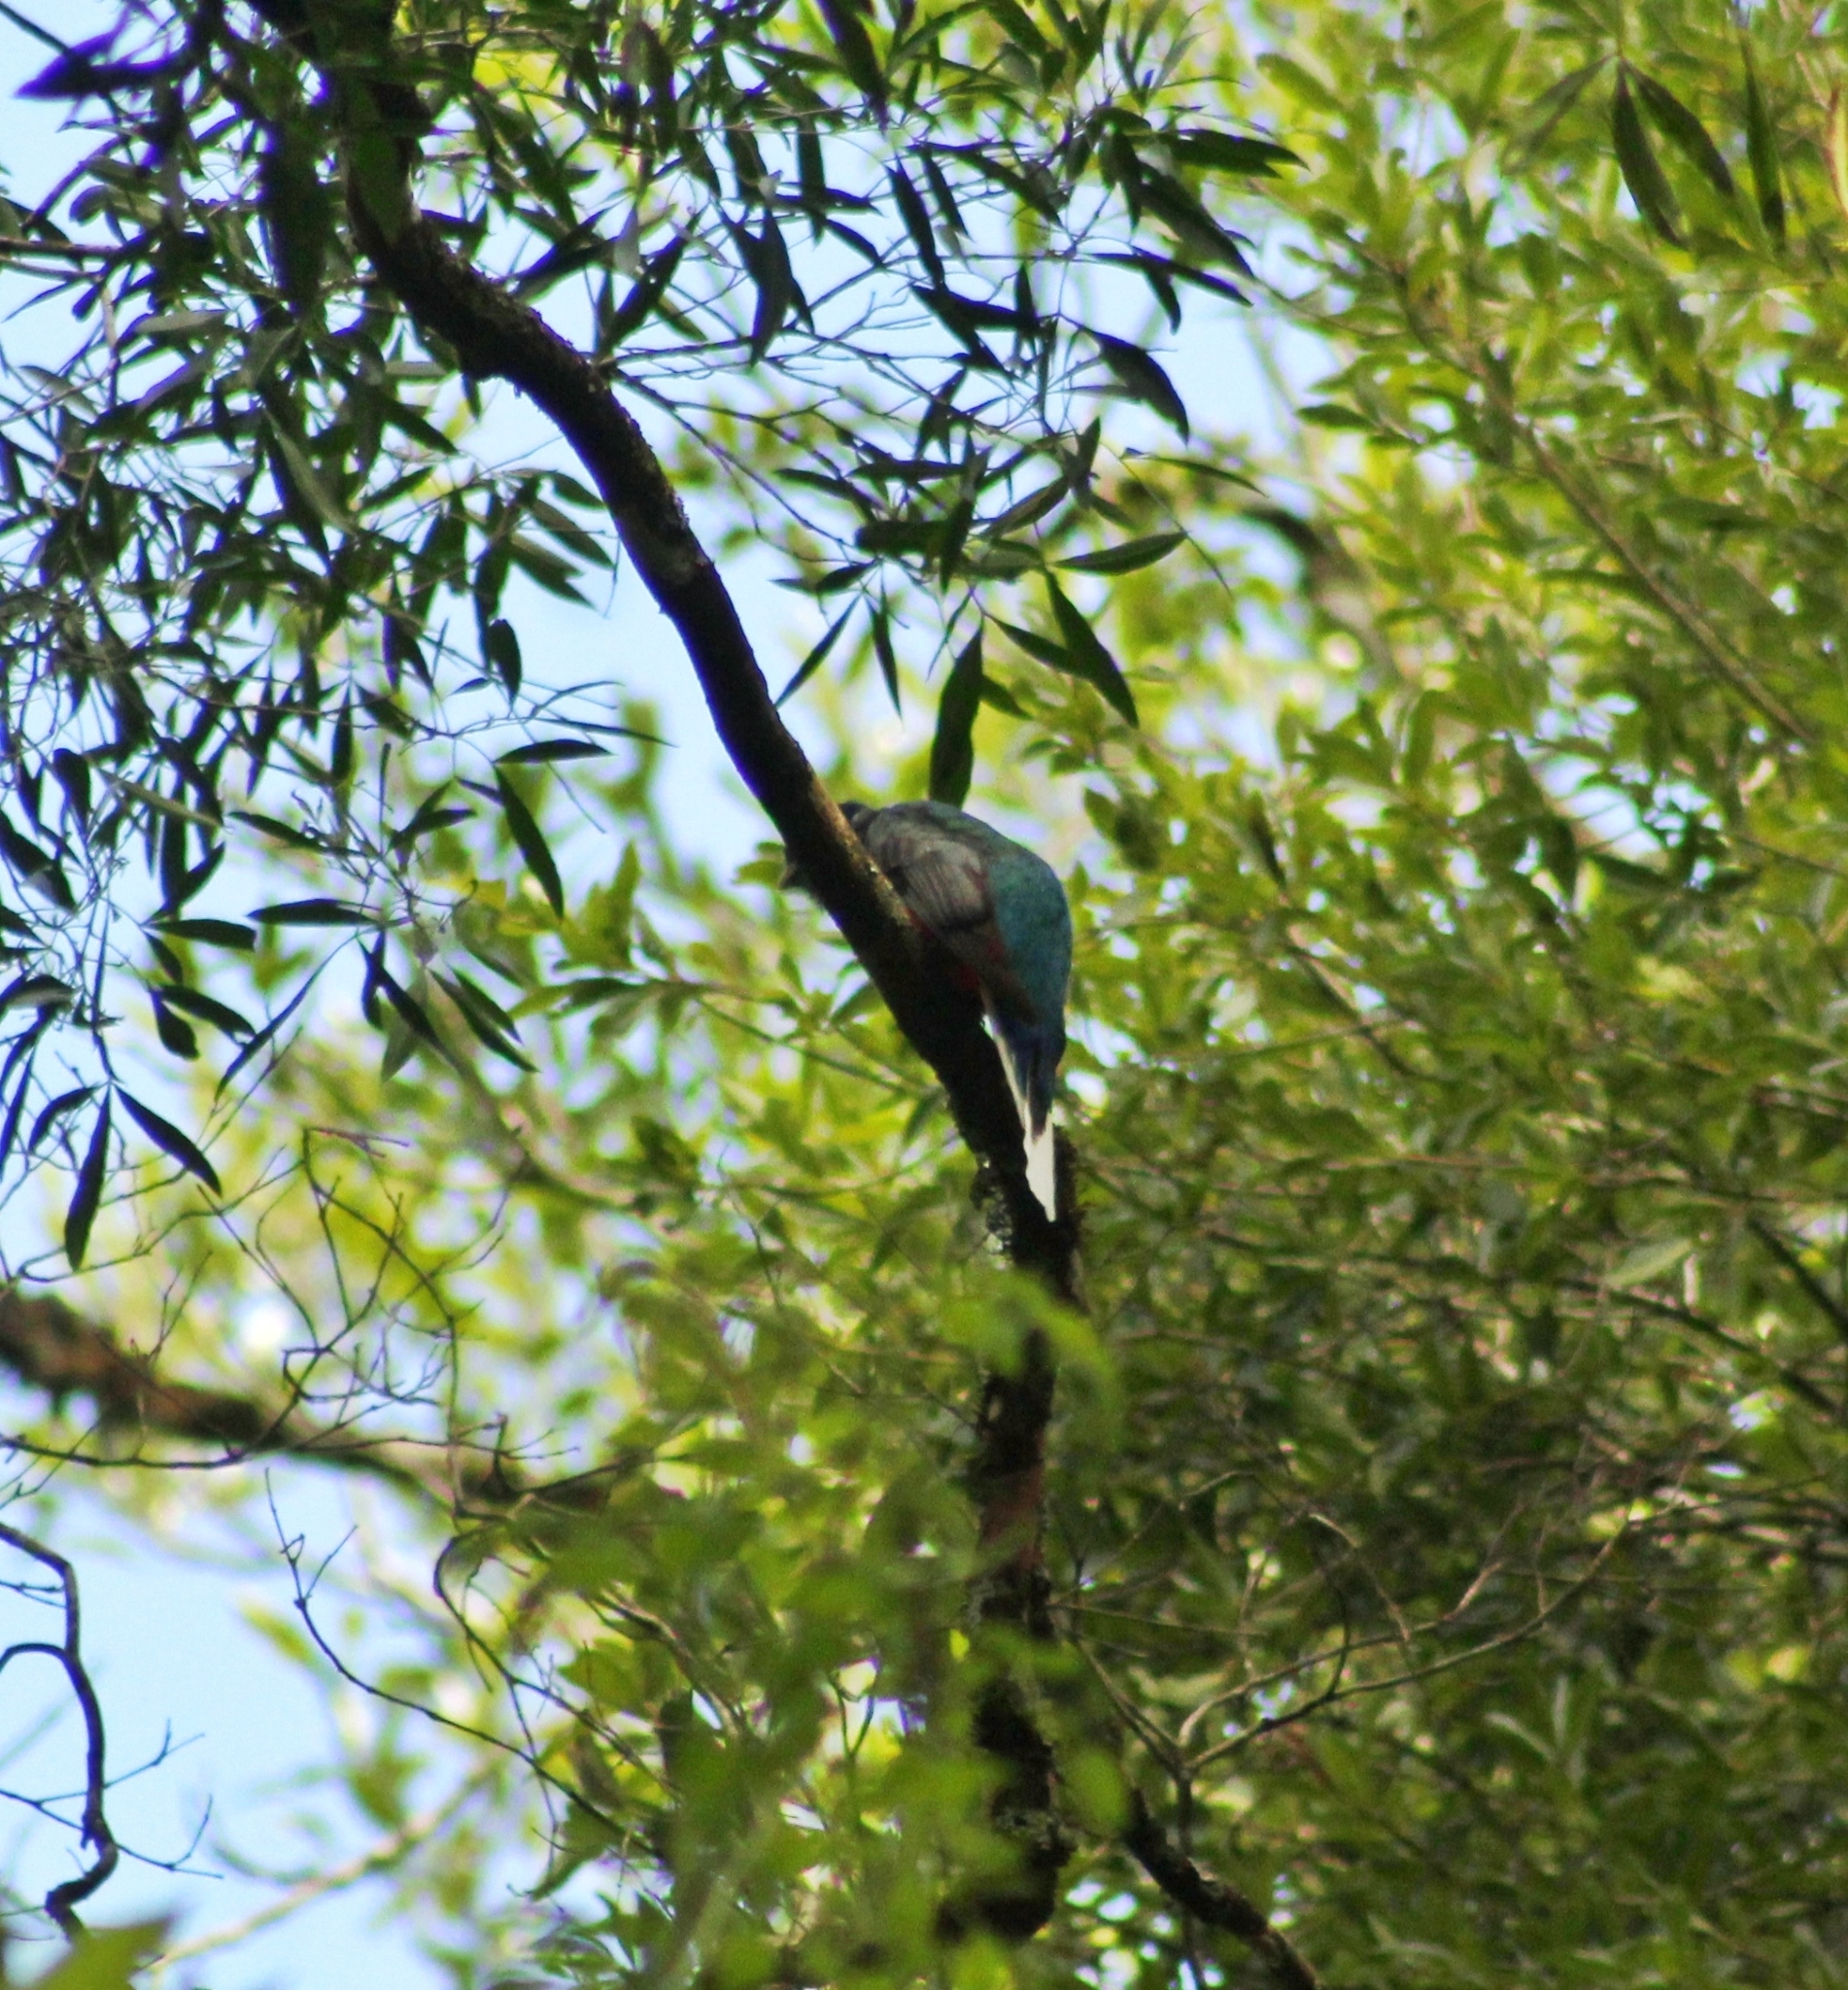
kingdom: Animalia
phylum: Chordata
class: Aves
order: Trogoniformes
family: Trogonidae
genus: Trogon
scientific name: Trogon surrucura
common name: Surucua trogon
